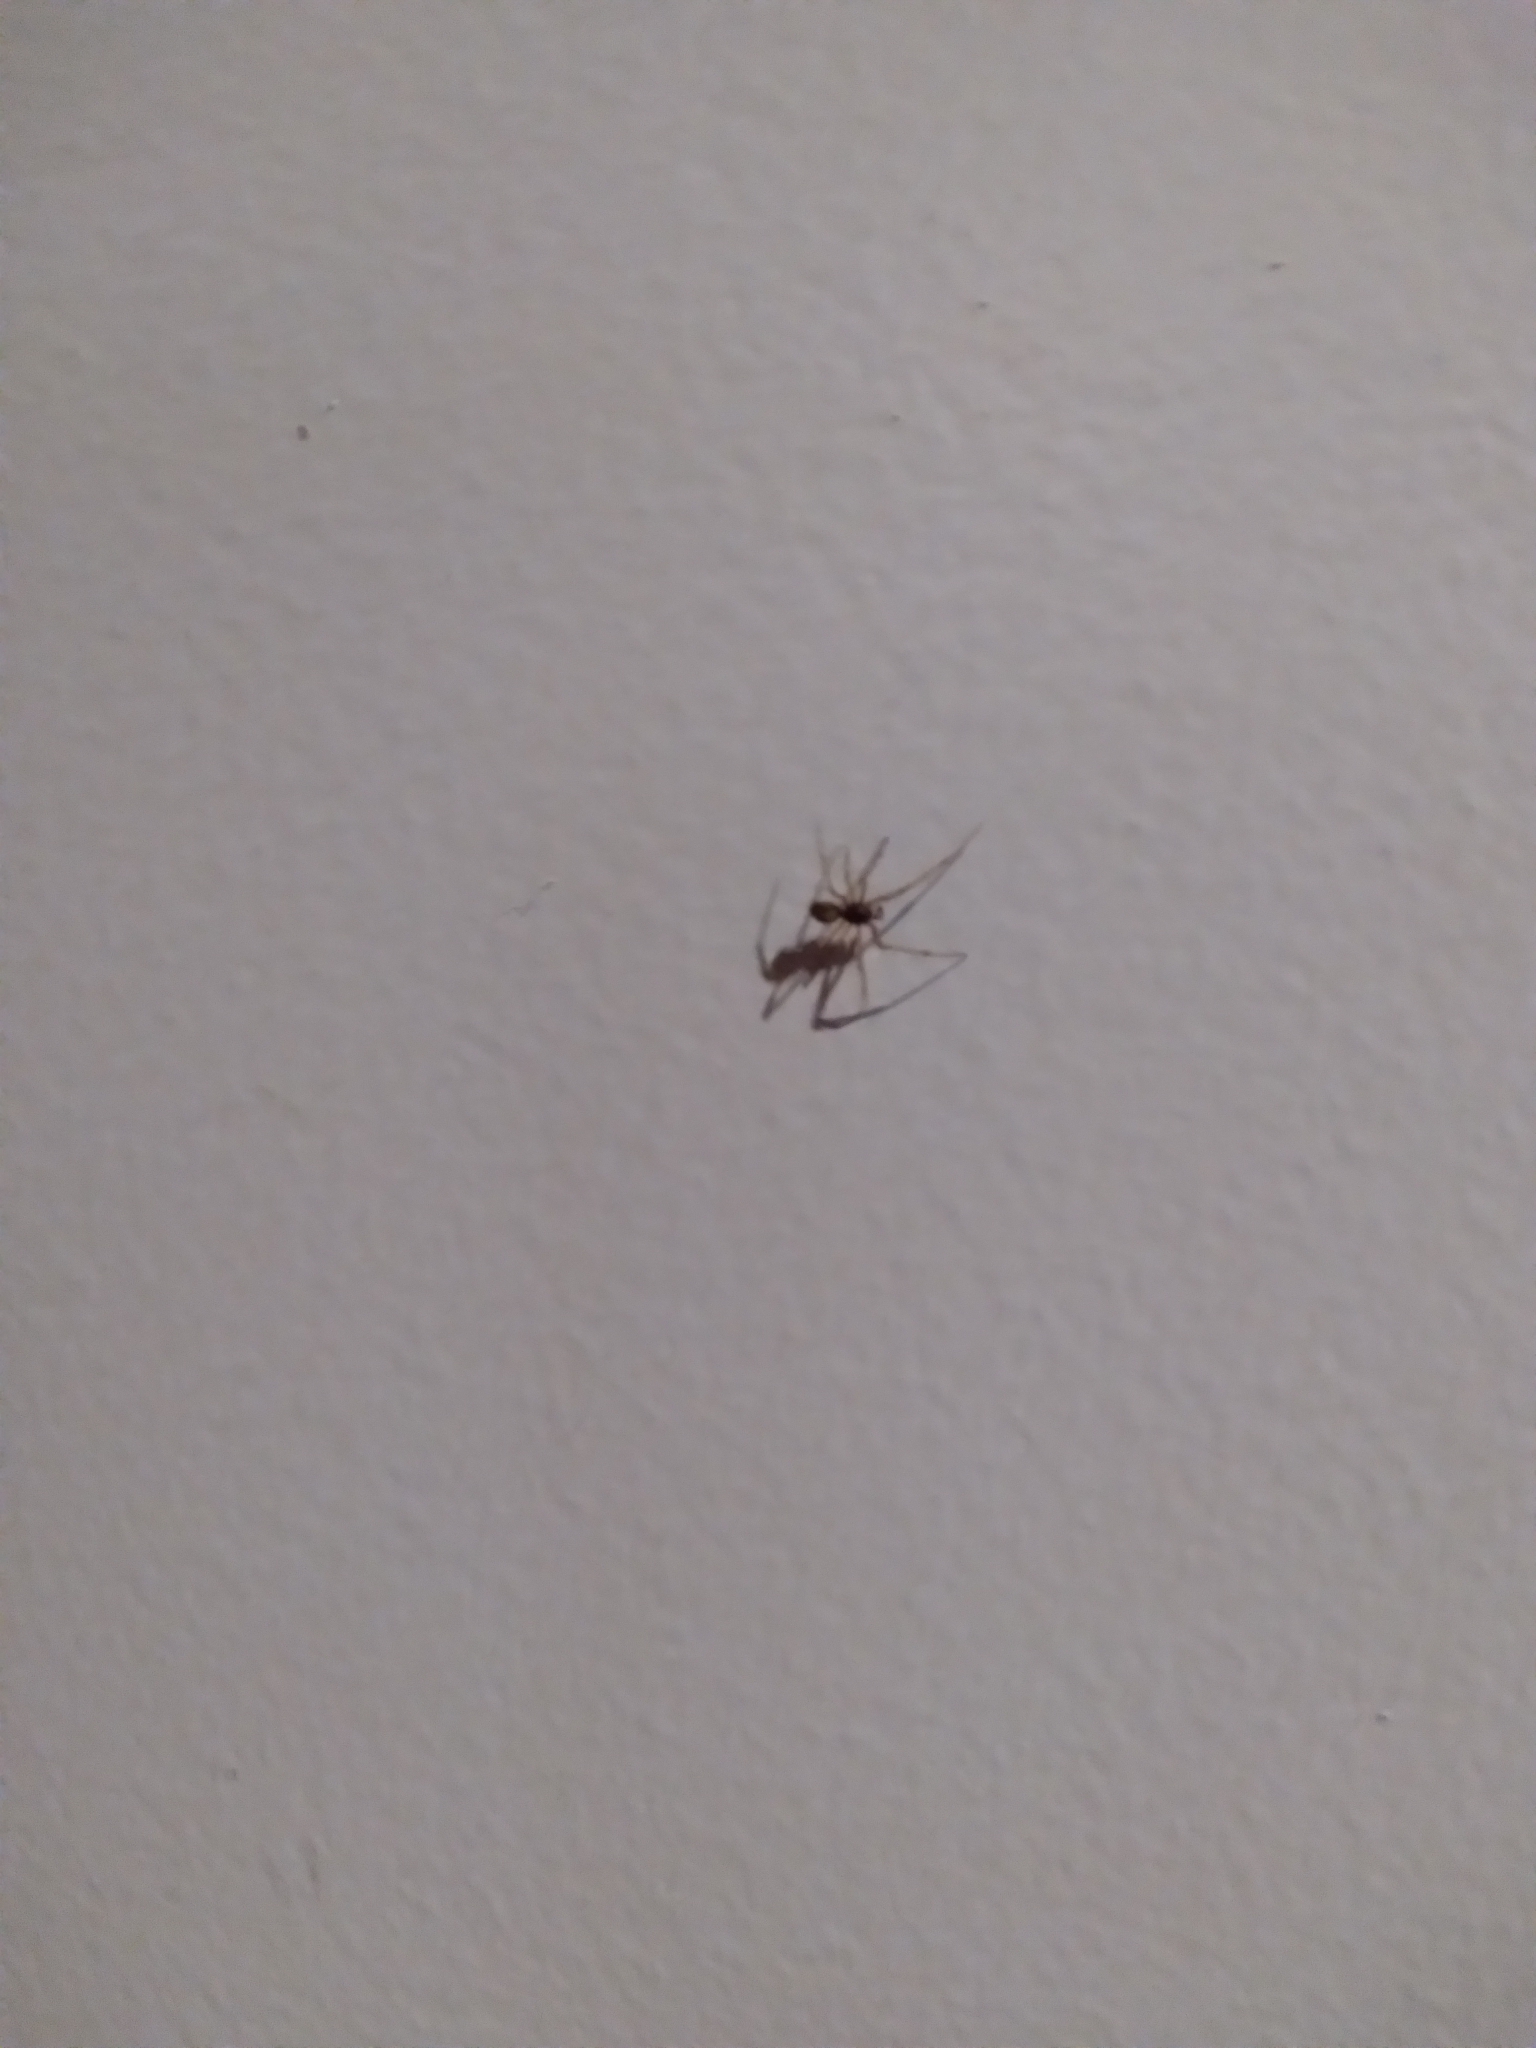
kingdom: Animalia
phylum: Arthropoda
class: Arachnida
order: Araneae
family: Theridiidae
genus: Steatoda
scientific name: Steatoda triangulosa
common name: Triangulate bud spider
